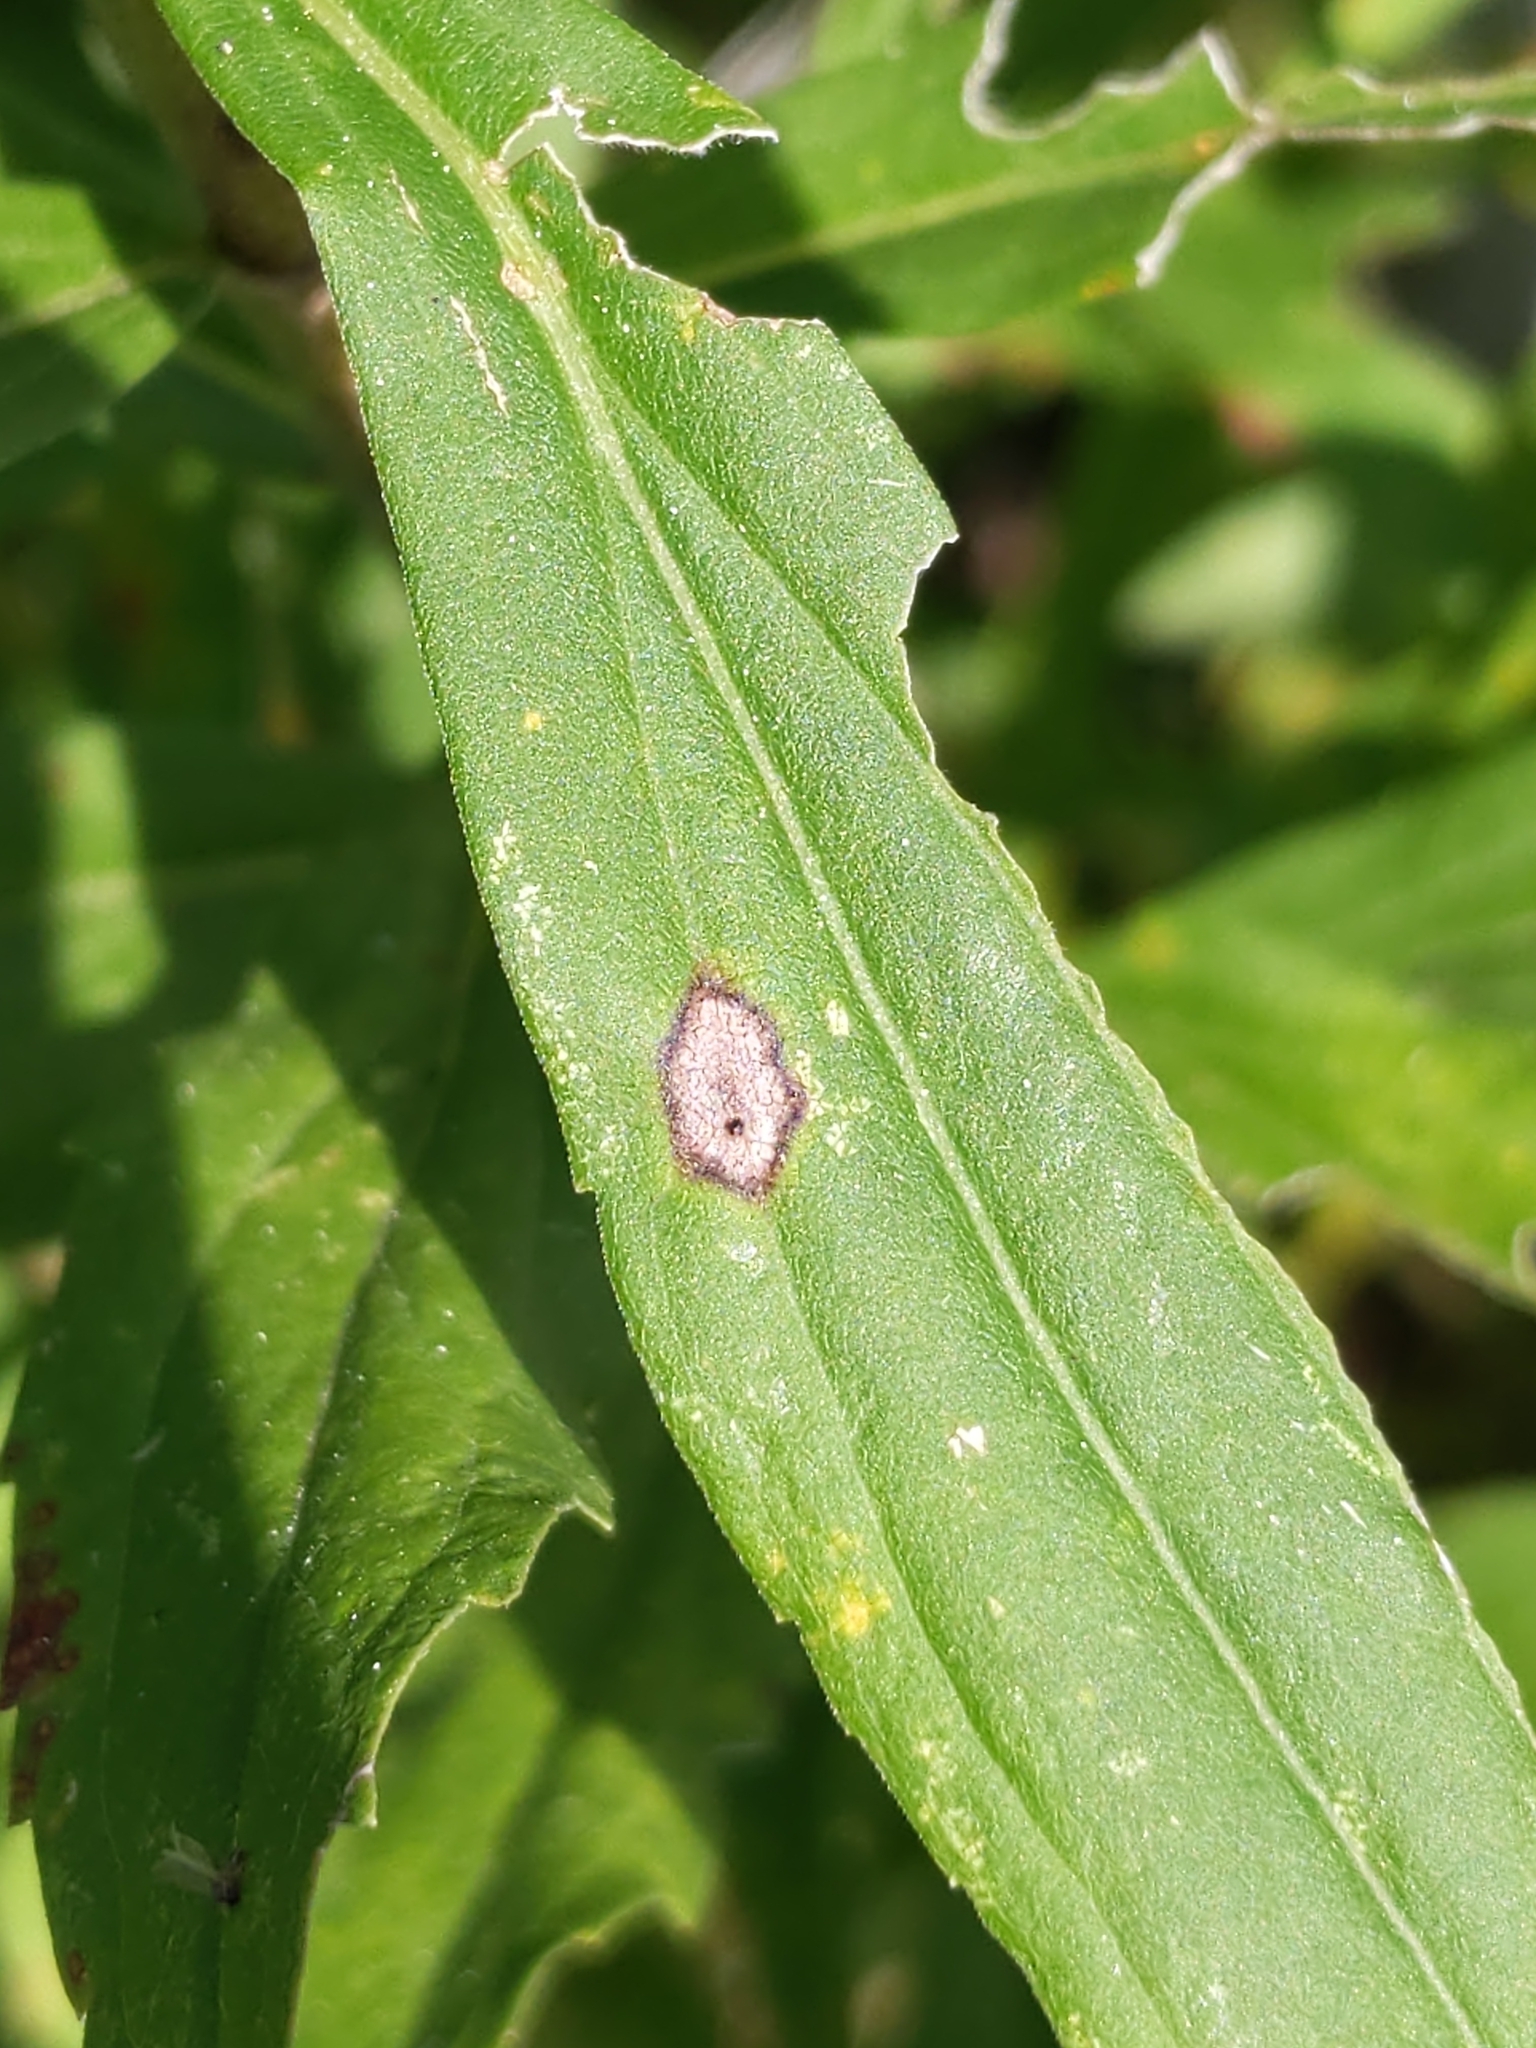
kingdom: Animalia
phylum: Arthropoda
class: Insecta
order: Diptera
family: Cecidomyiidae
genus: Asteromyia
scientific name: Asteromyia carbonifera
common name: Carbonifera goldenrod gall midge
